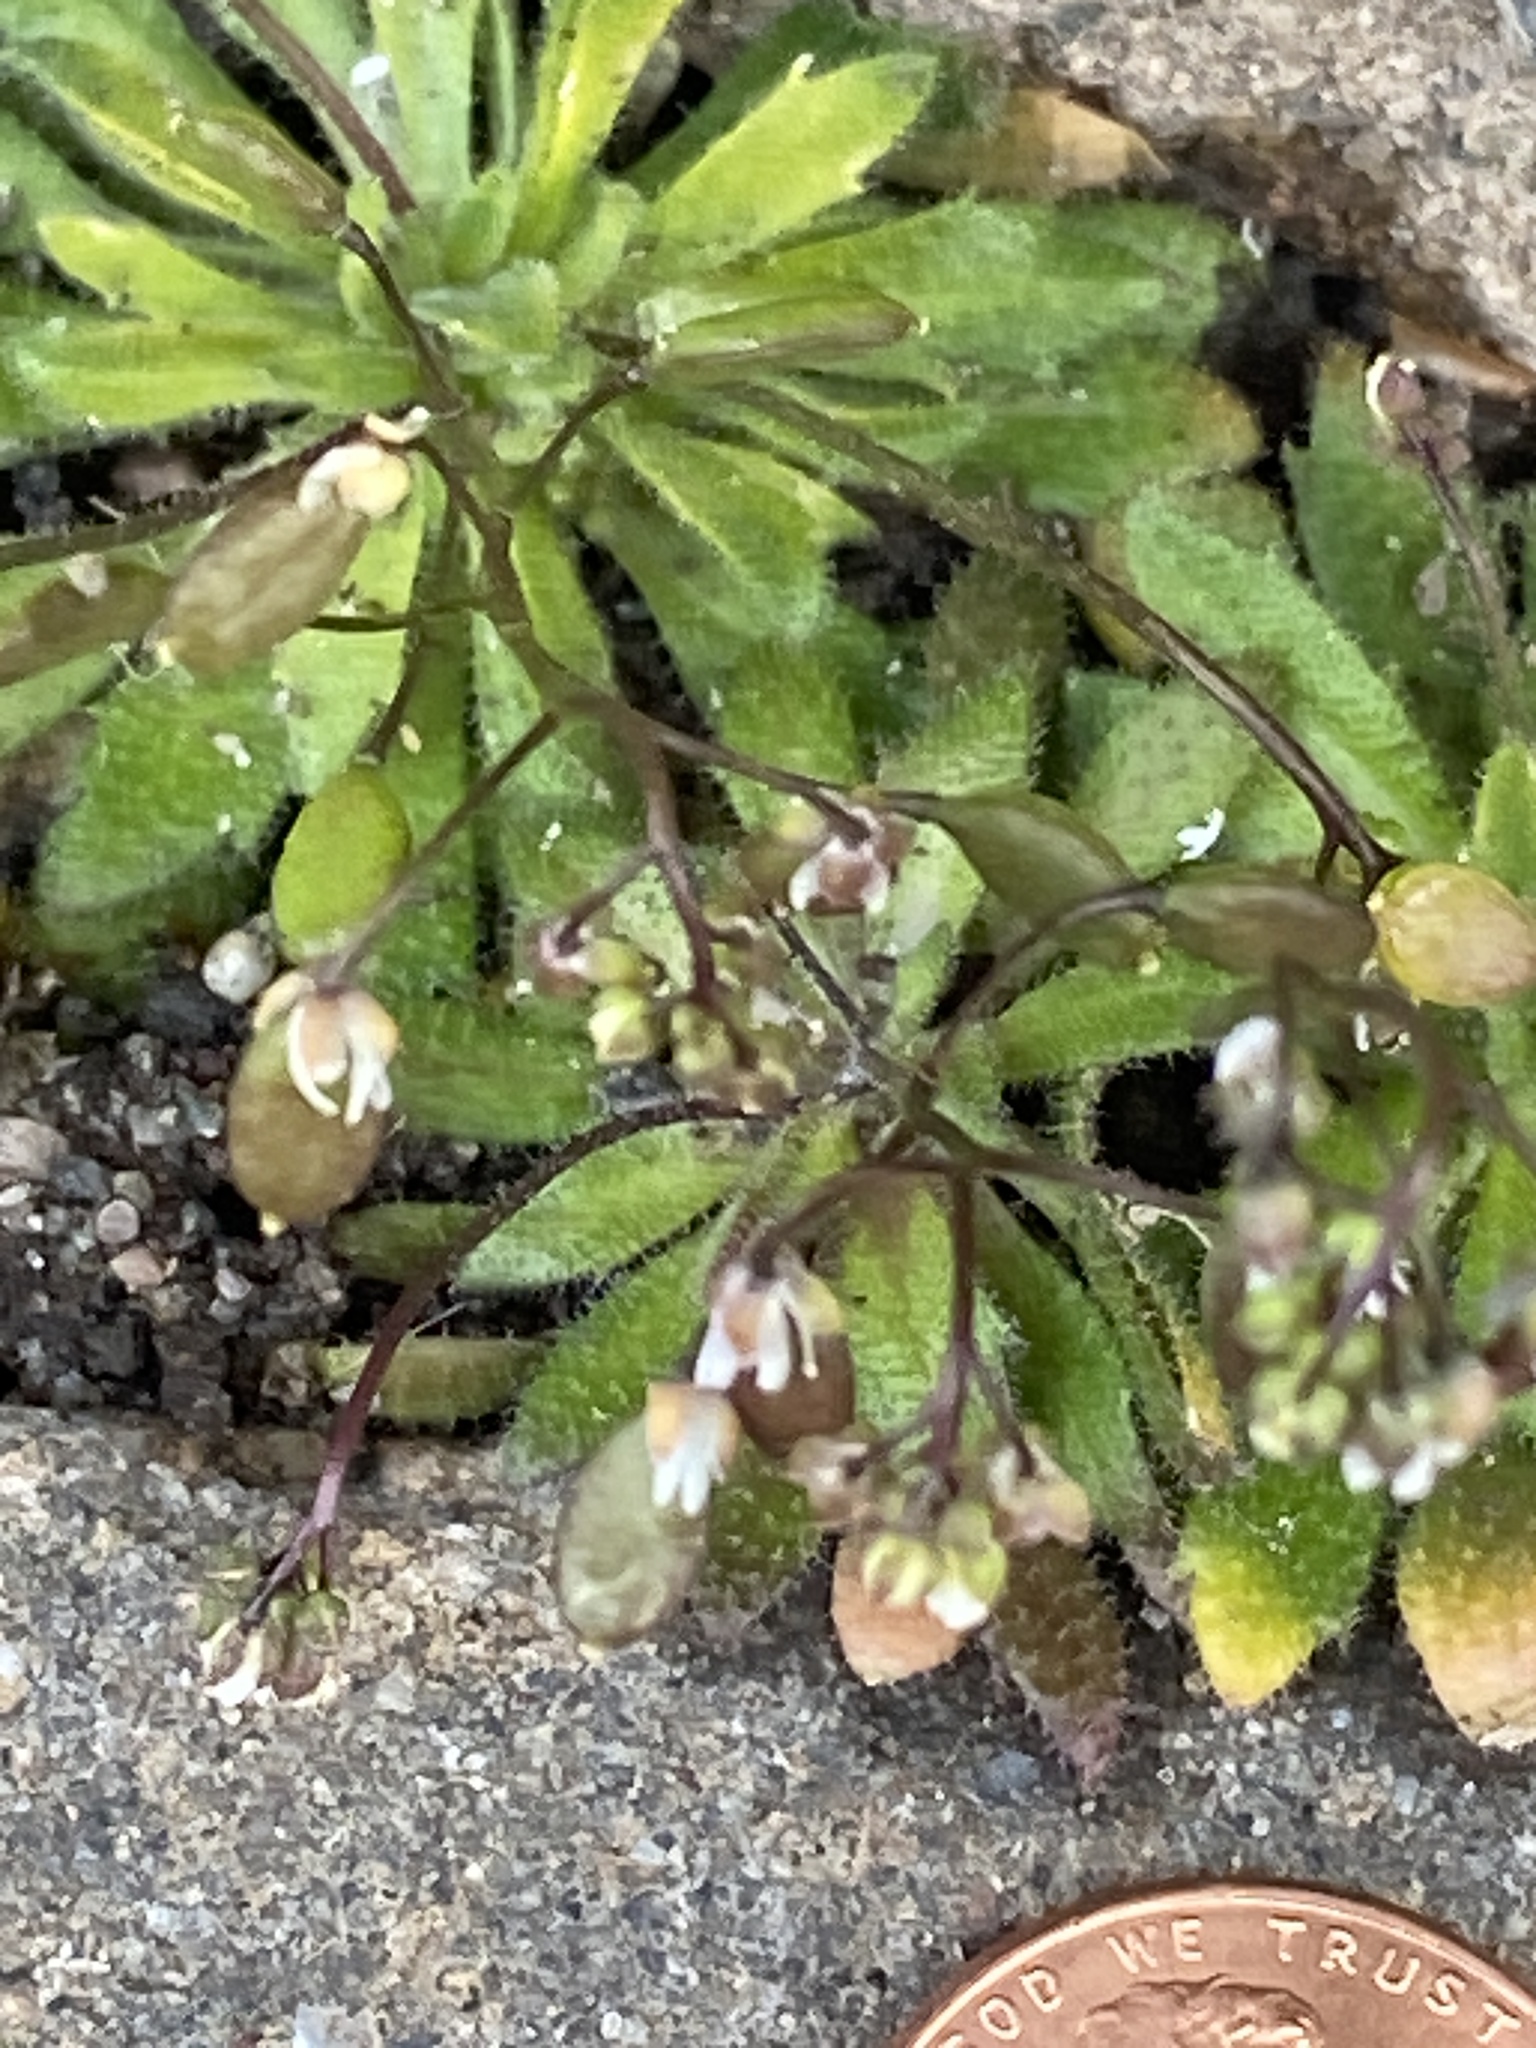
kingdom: Plantae
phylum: Tracheophyta
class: Magnoliopsida
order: Brassicales
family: Brassicaceae
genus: Draba
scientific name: Draba verna
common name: Spring draba
